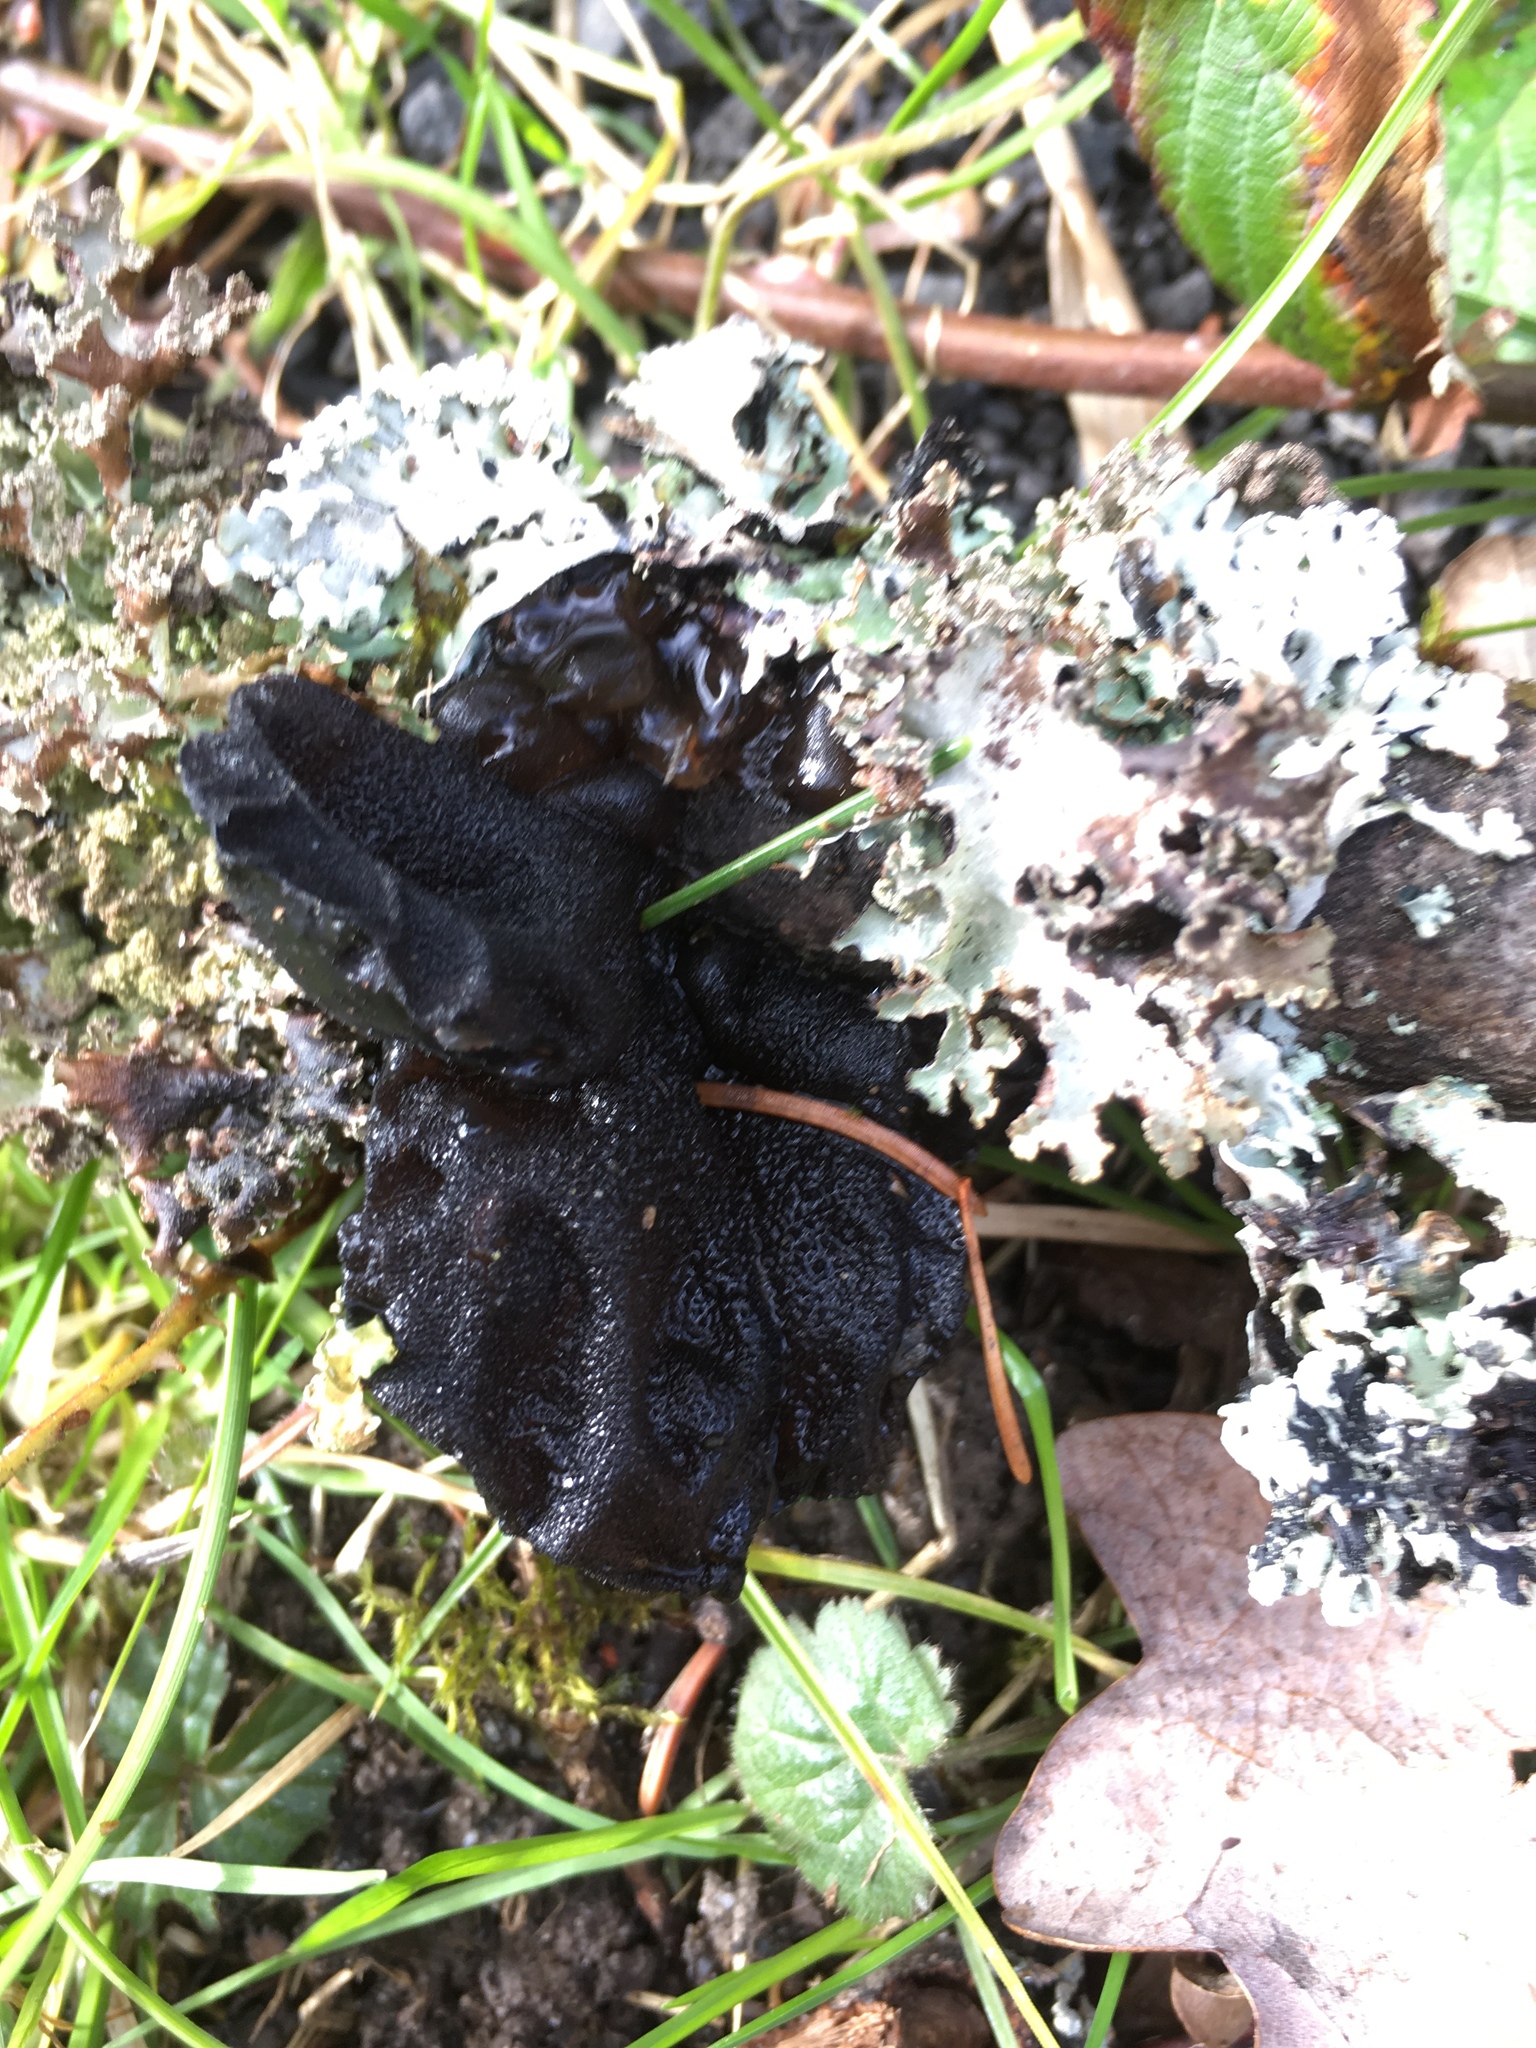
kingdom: Fungi
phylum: Basidiomycota
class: Agaricomycetes
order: Auriculariales
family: Auriculariaceae
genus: Exidia
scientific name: Exidia glandulosa
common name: Witches' butter
